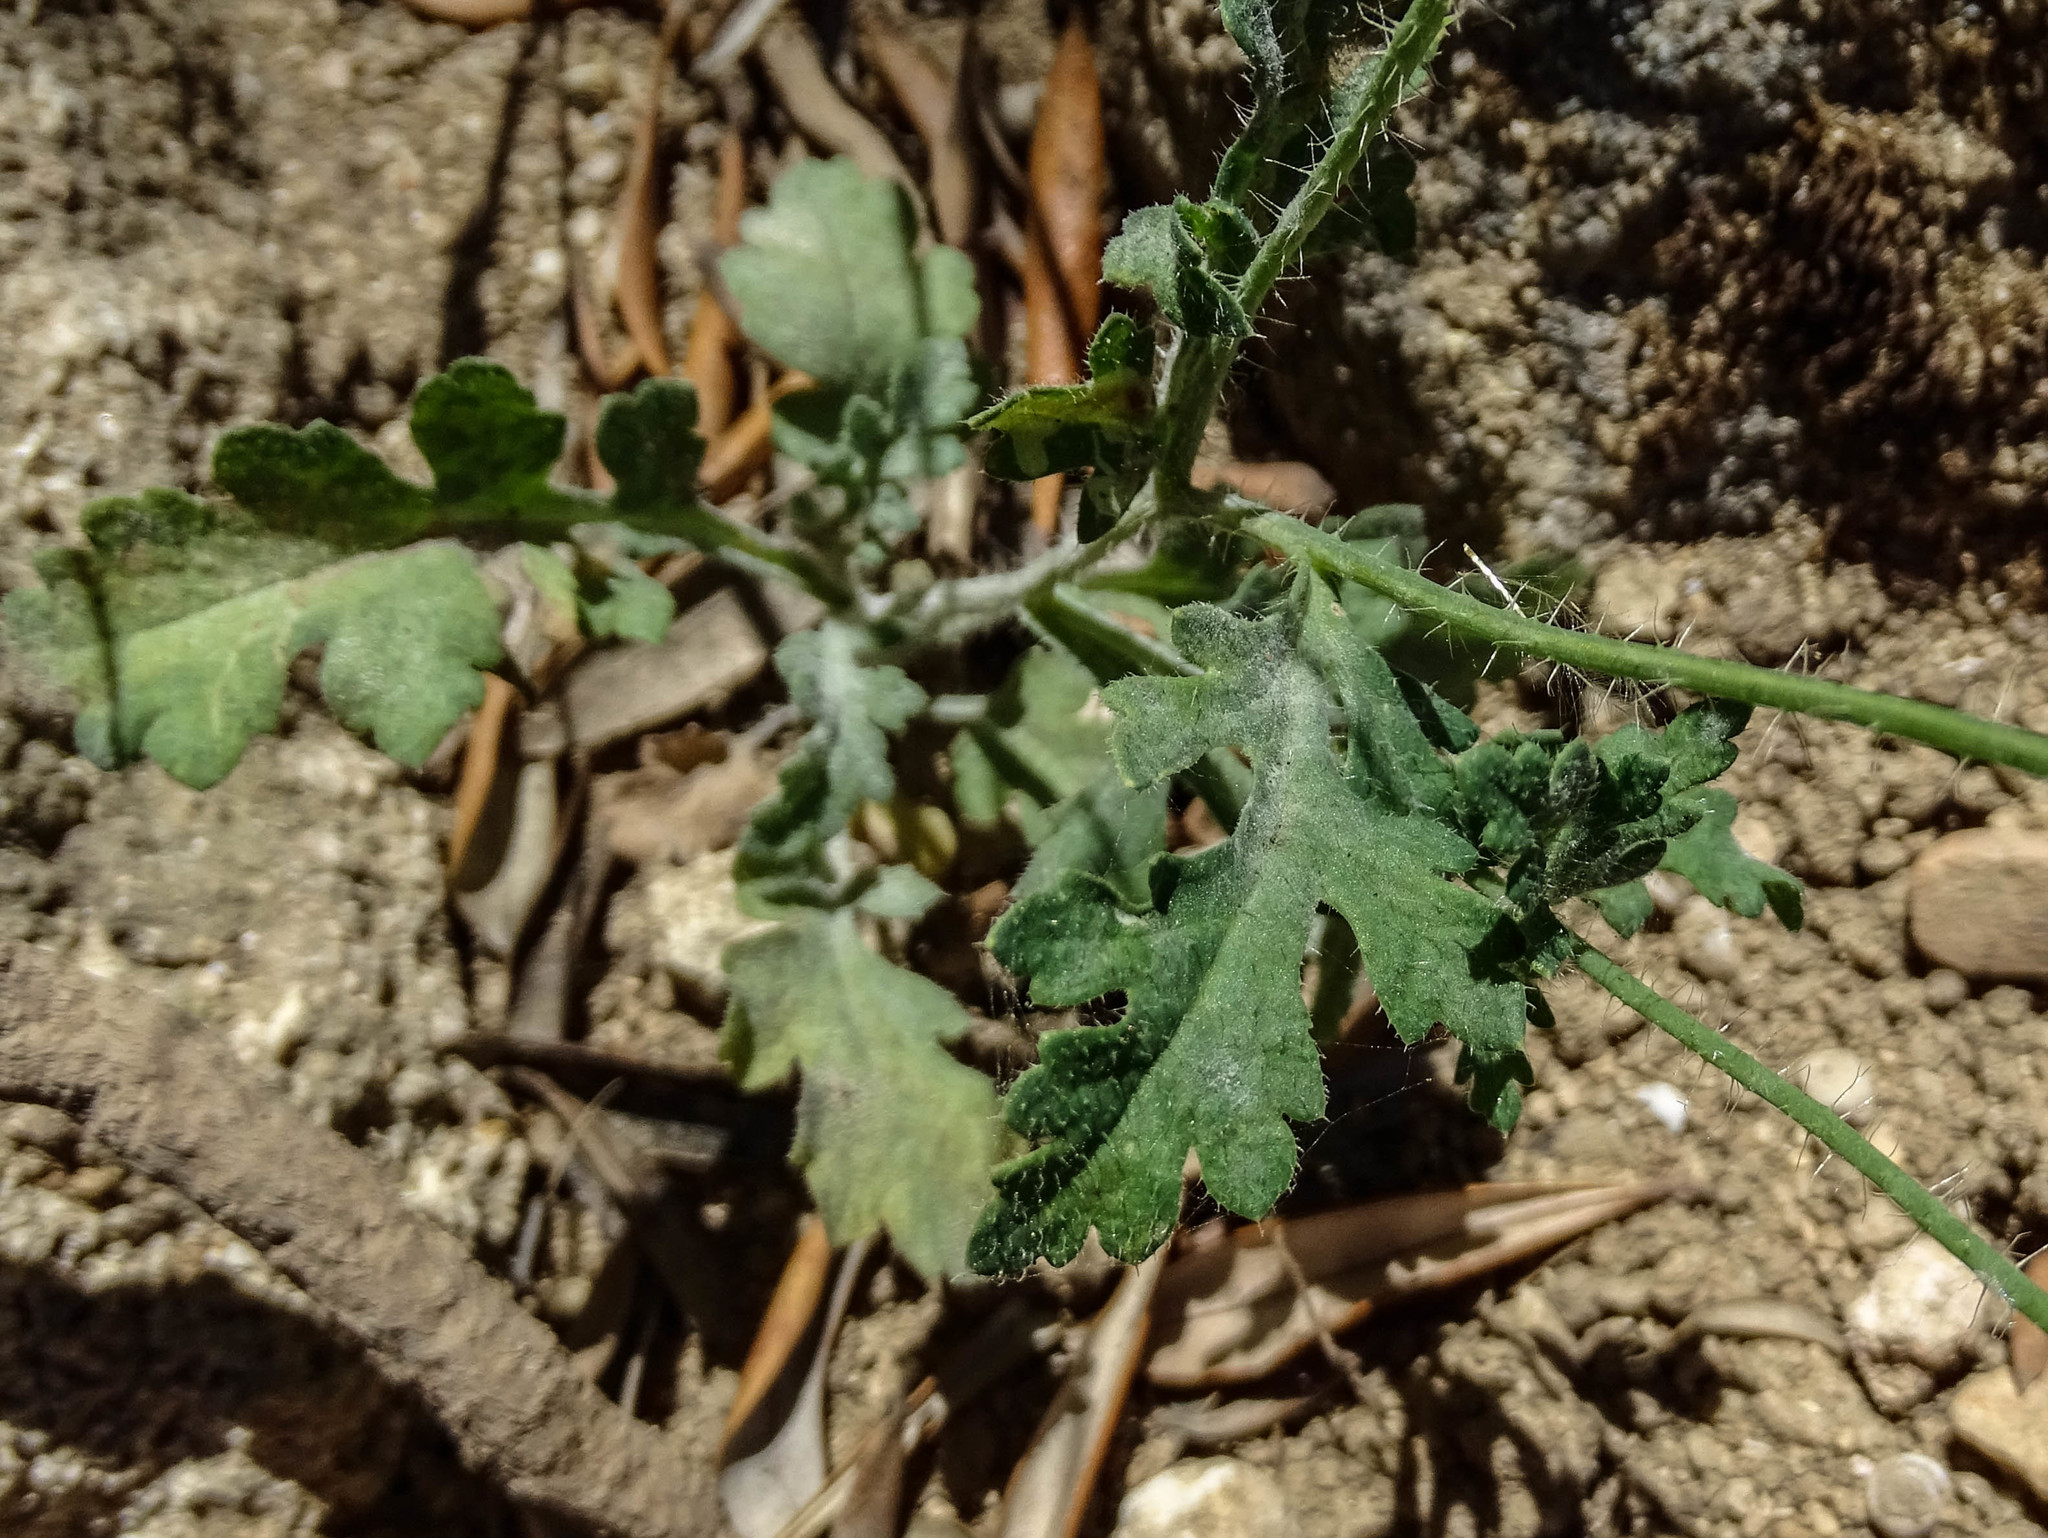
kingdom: Plantae
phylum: Tracheophyta
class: Magnoliopsida
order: Ranunculales
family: Papaveraceae
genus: Papaver
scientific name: Papaver rhoeas
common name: Corn poppy
